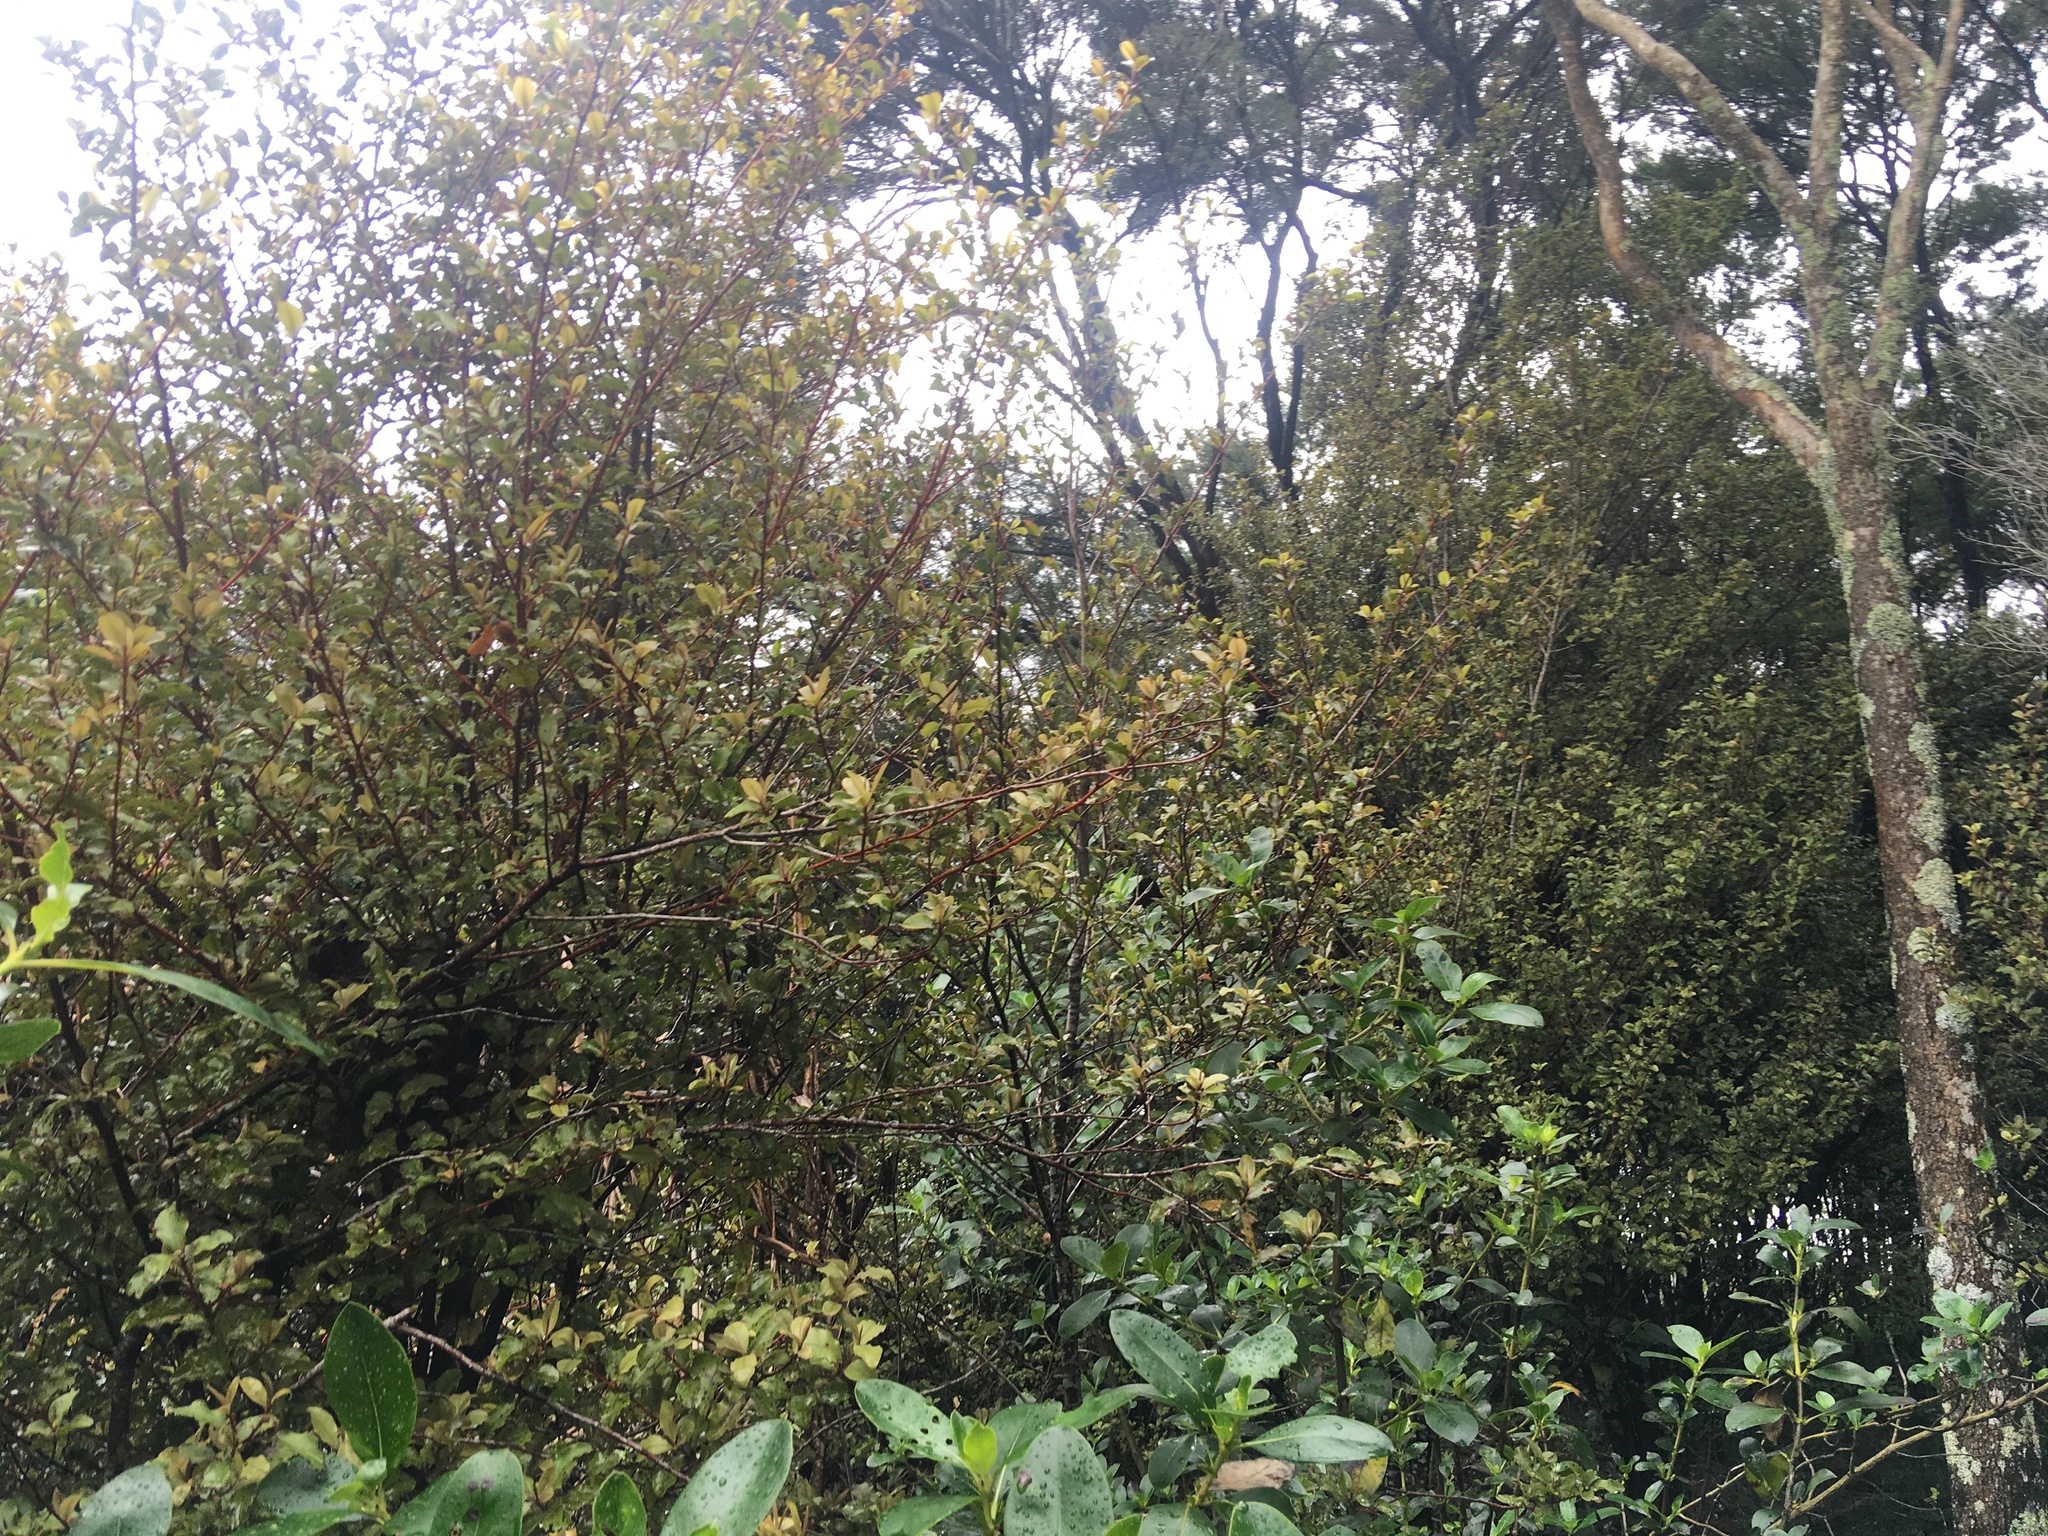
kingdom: Plantae
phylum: Tracheophyta
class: Magnoliopsida
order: Ericales
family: Primulaceae
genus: Myrsine
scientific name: Myrsine australis
